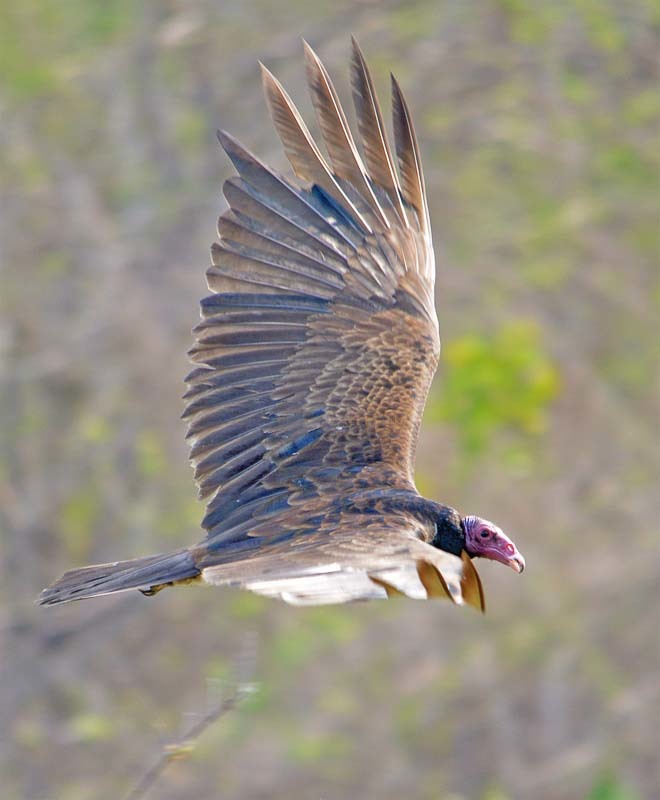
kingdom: Animalia
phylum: Chordata
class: Aves
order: Accipitriformes
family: Cathartidae
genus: Cathartes
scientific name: Cathartes aura
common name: Turkey vulture
